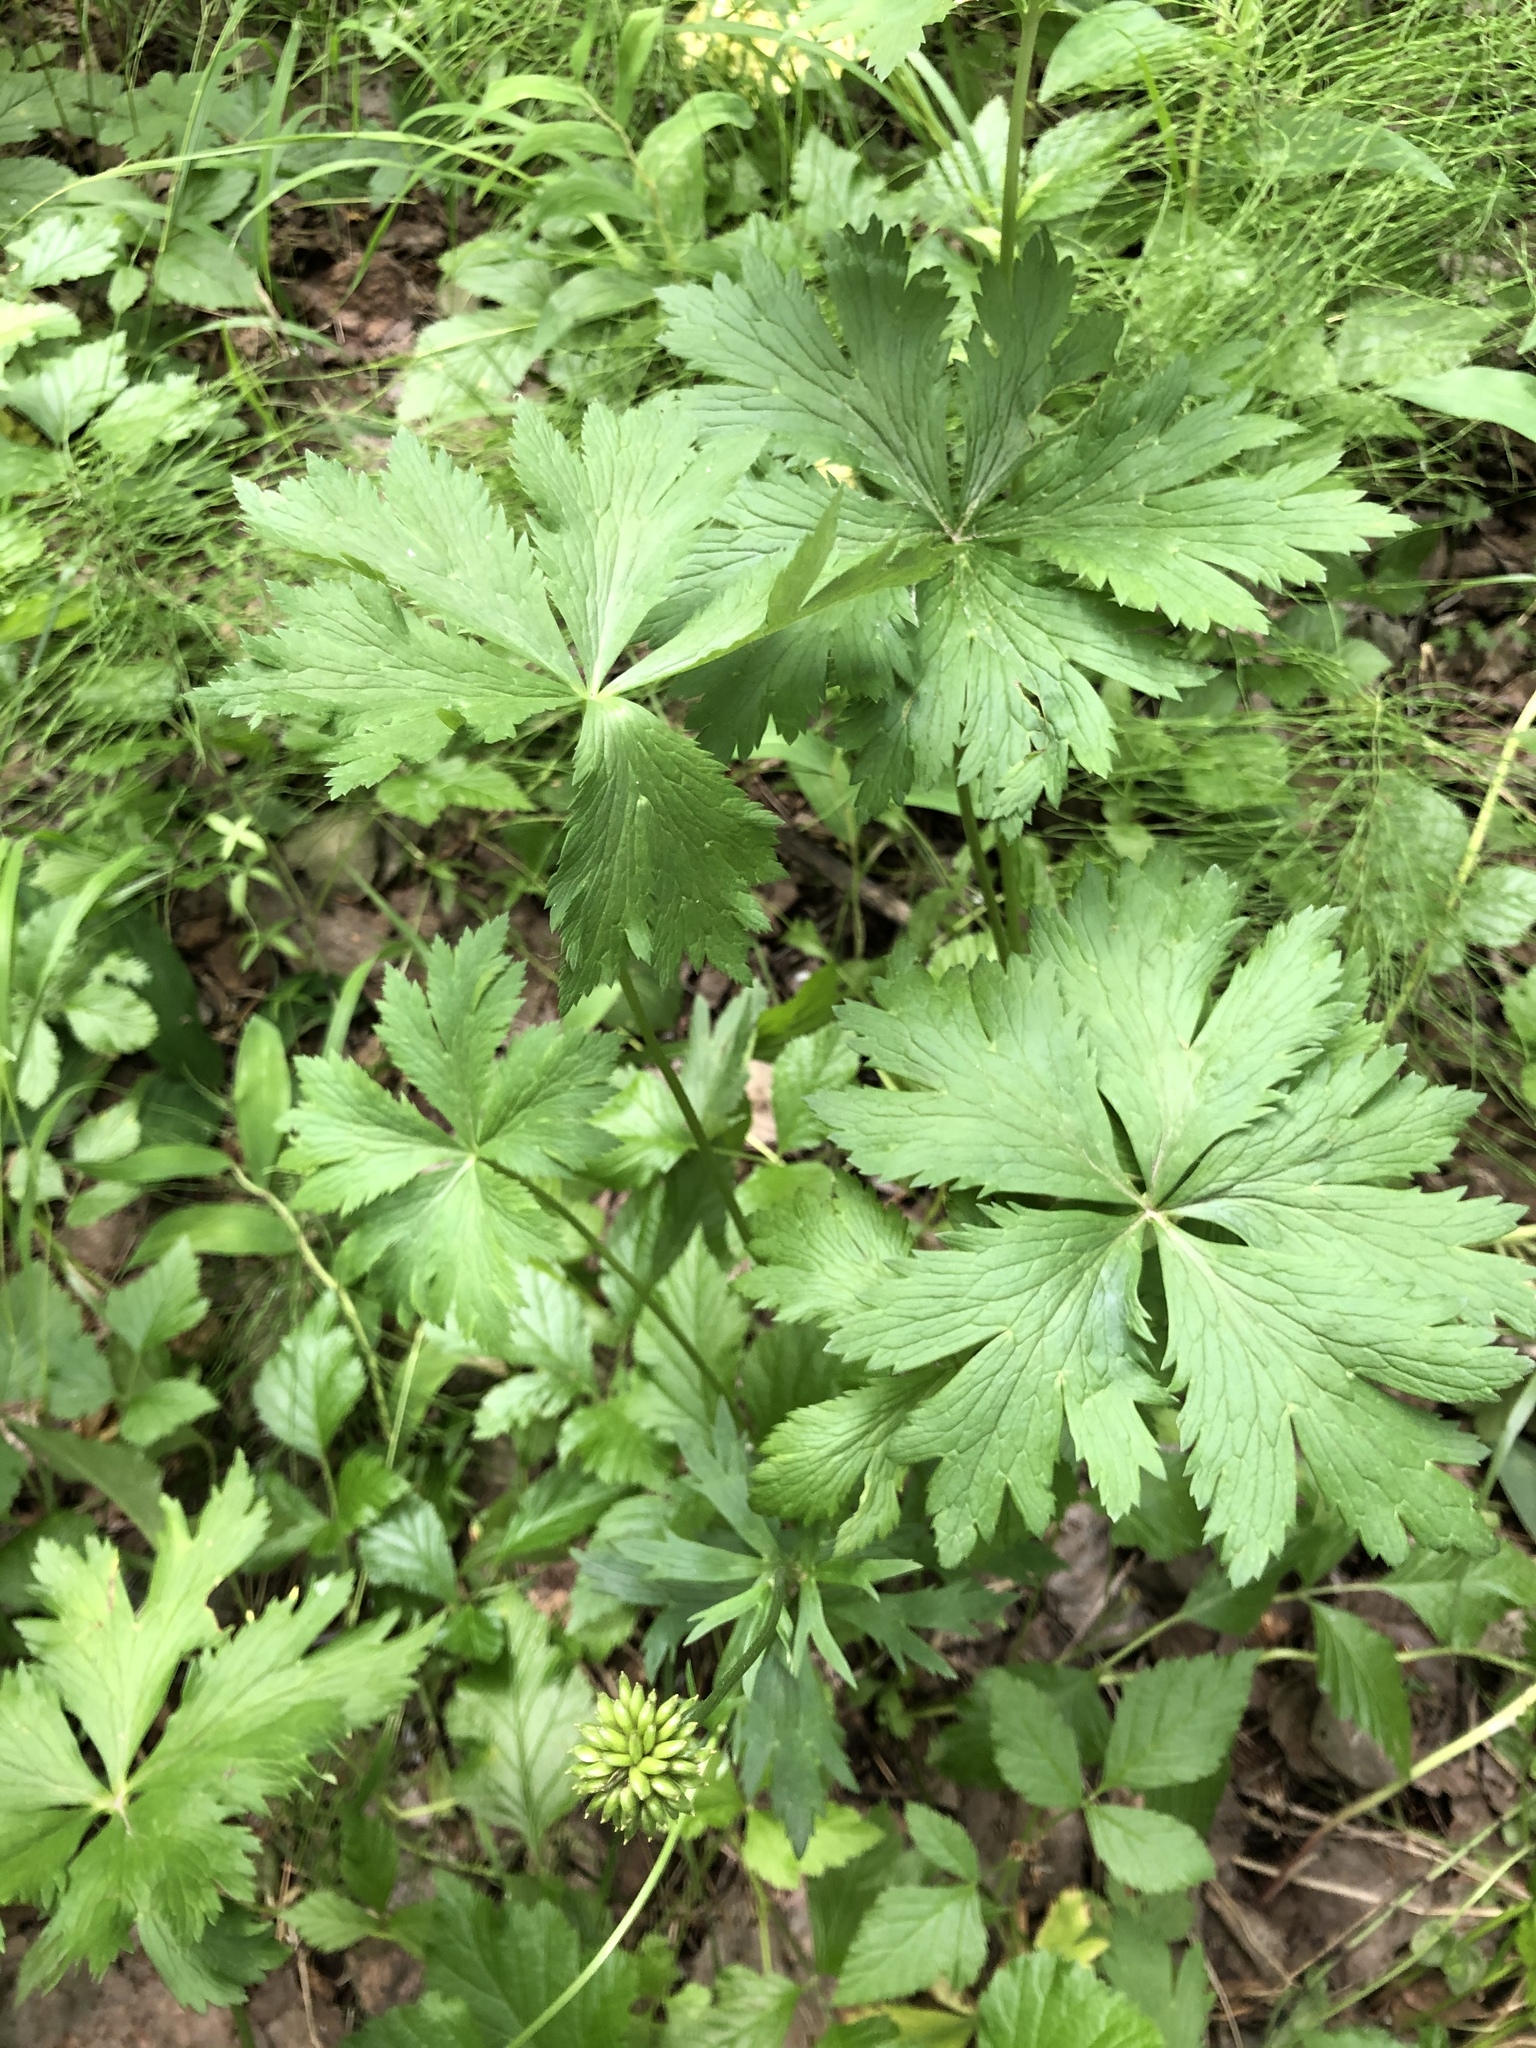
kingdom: Plantae
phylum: Tracheophyta
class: Magnoliopsida
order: Ranunculales
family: Ranunculaceae
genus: Trollius
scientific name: Trollius europaeus
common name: European globeflower
